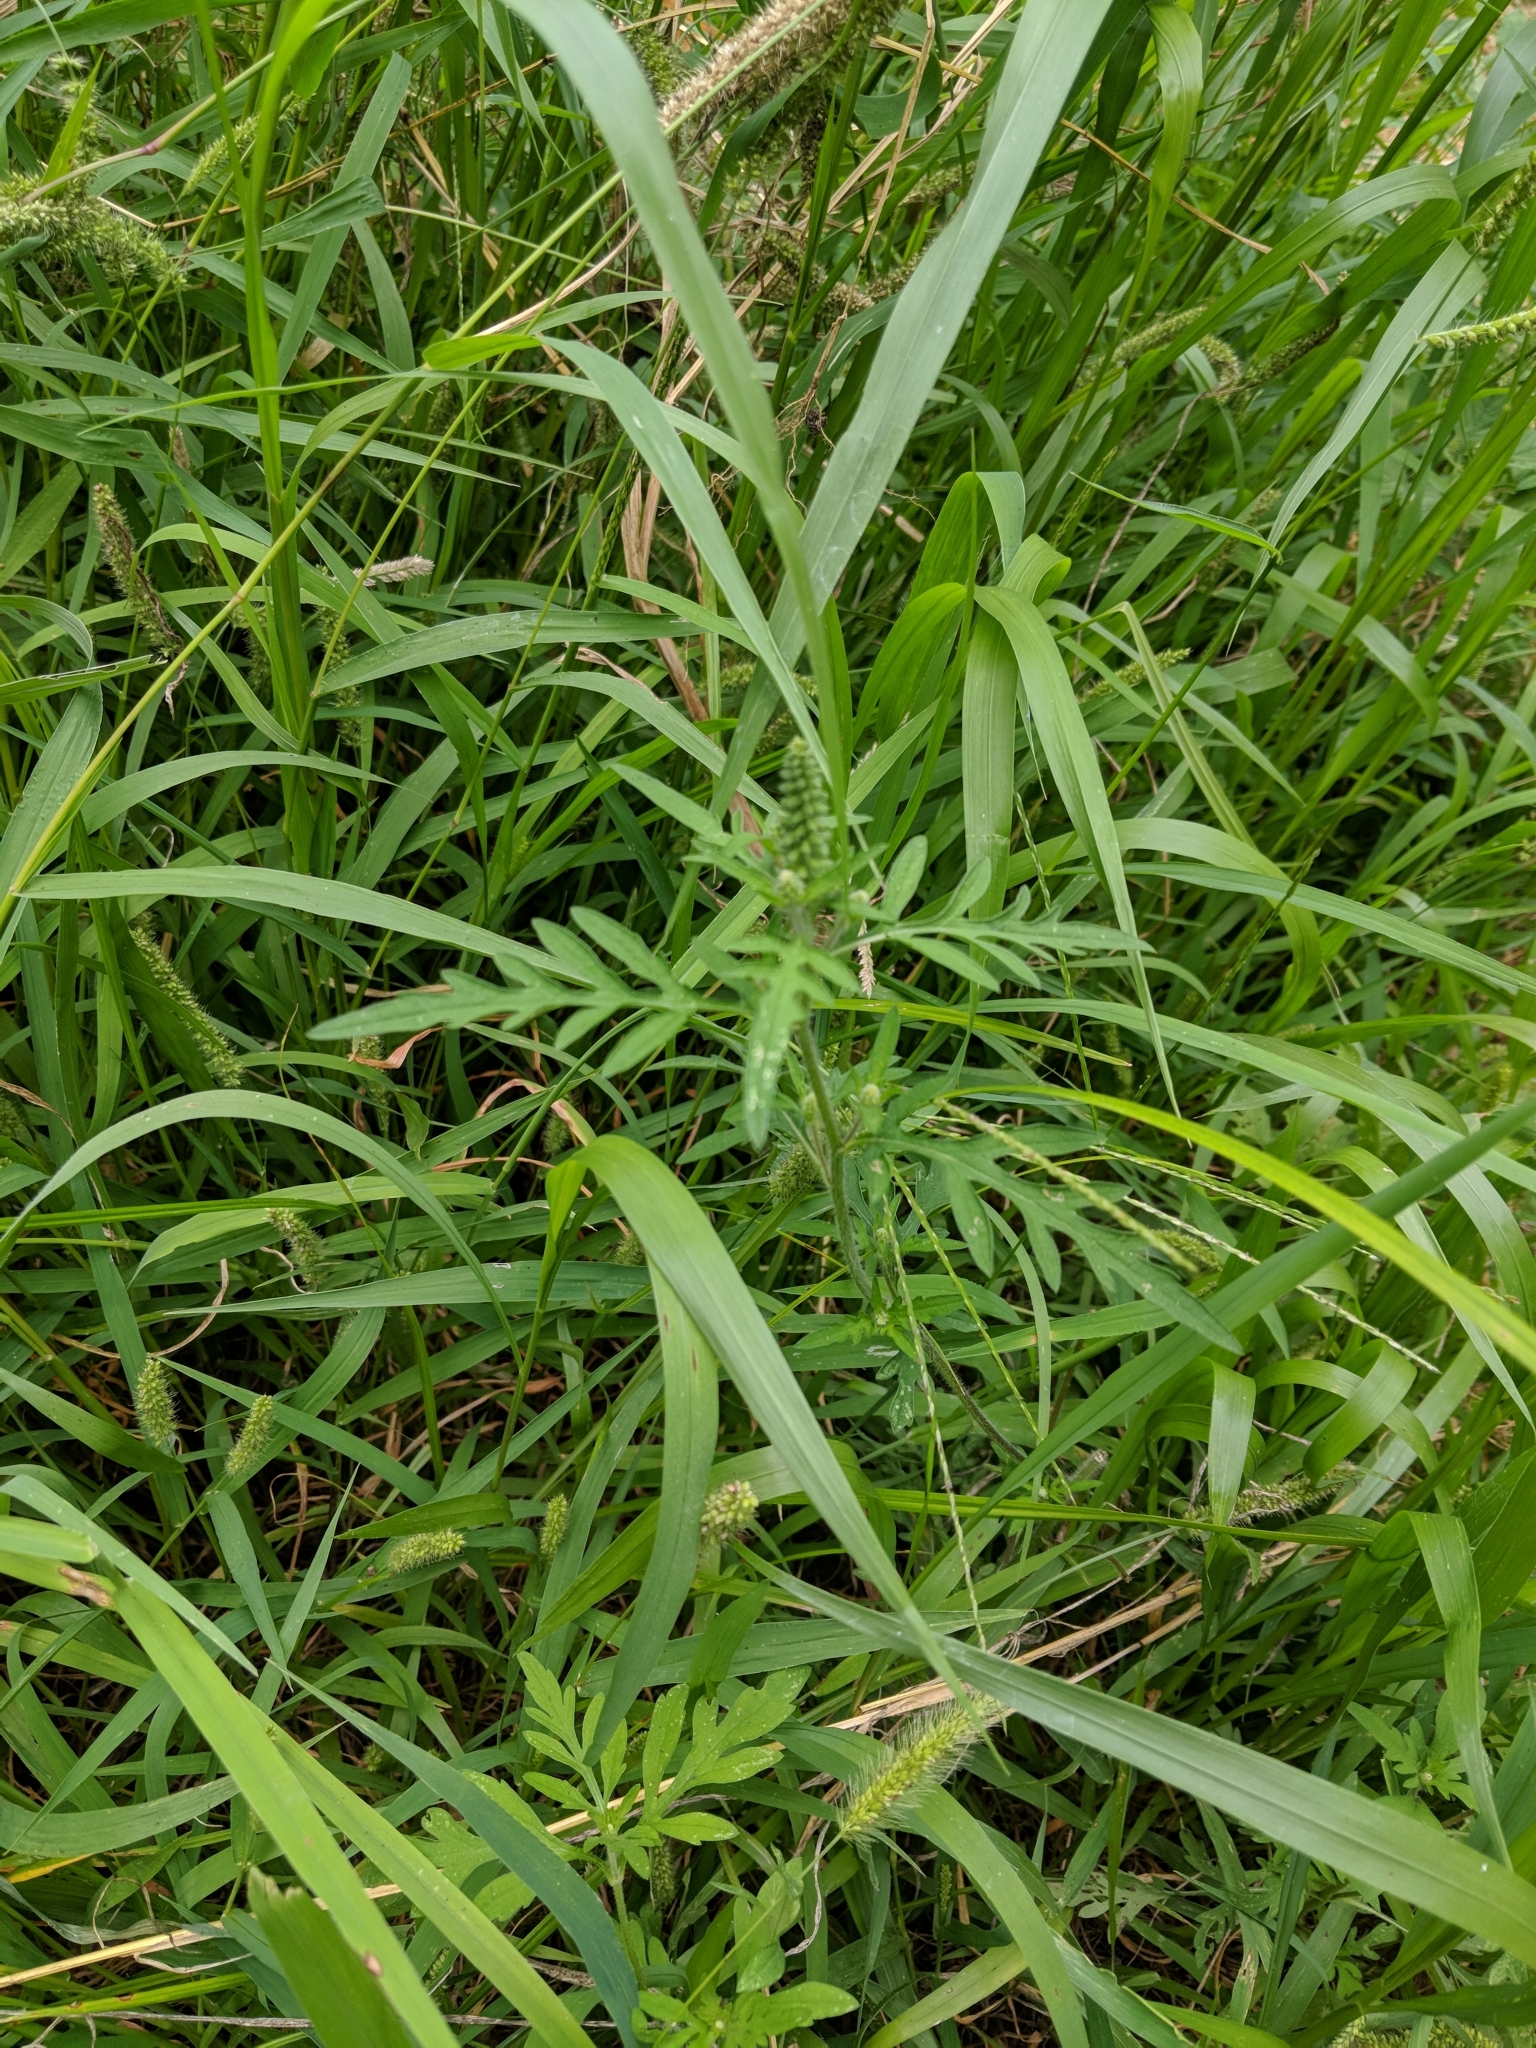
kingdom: Plantae
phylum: Tracheophyta
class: Magnoliopsida
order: Asterales
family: Asteraceae
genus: Ambrosia
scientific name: Ambrosia artemisiifolia
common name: Annual ragweed
